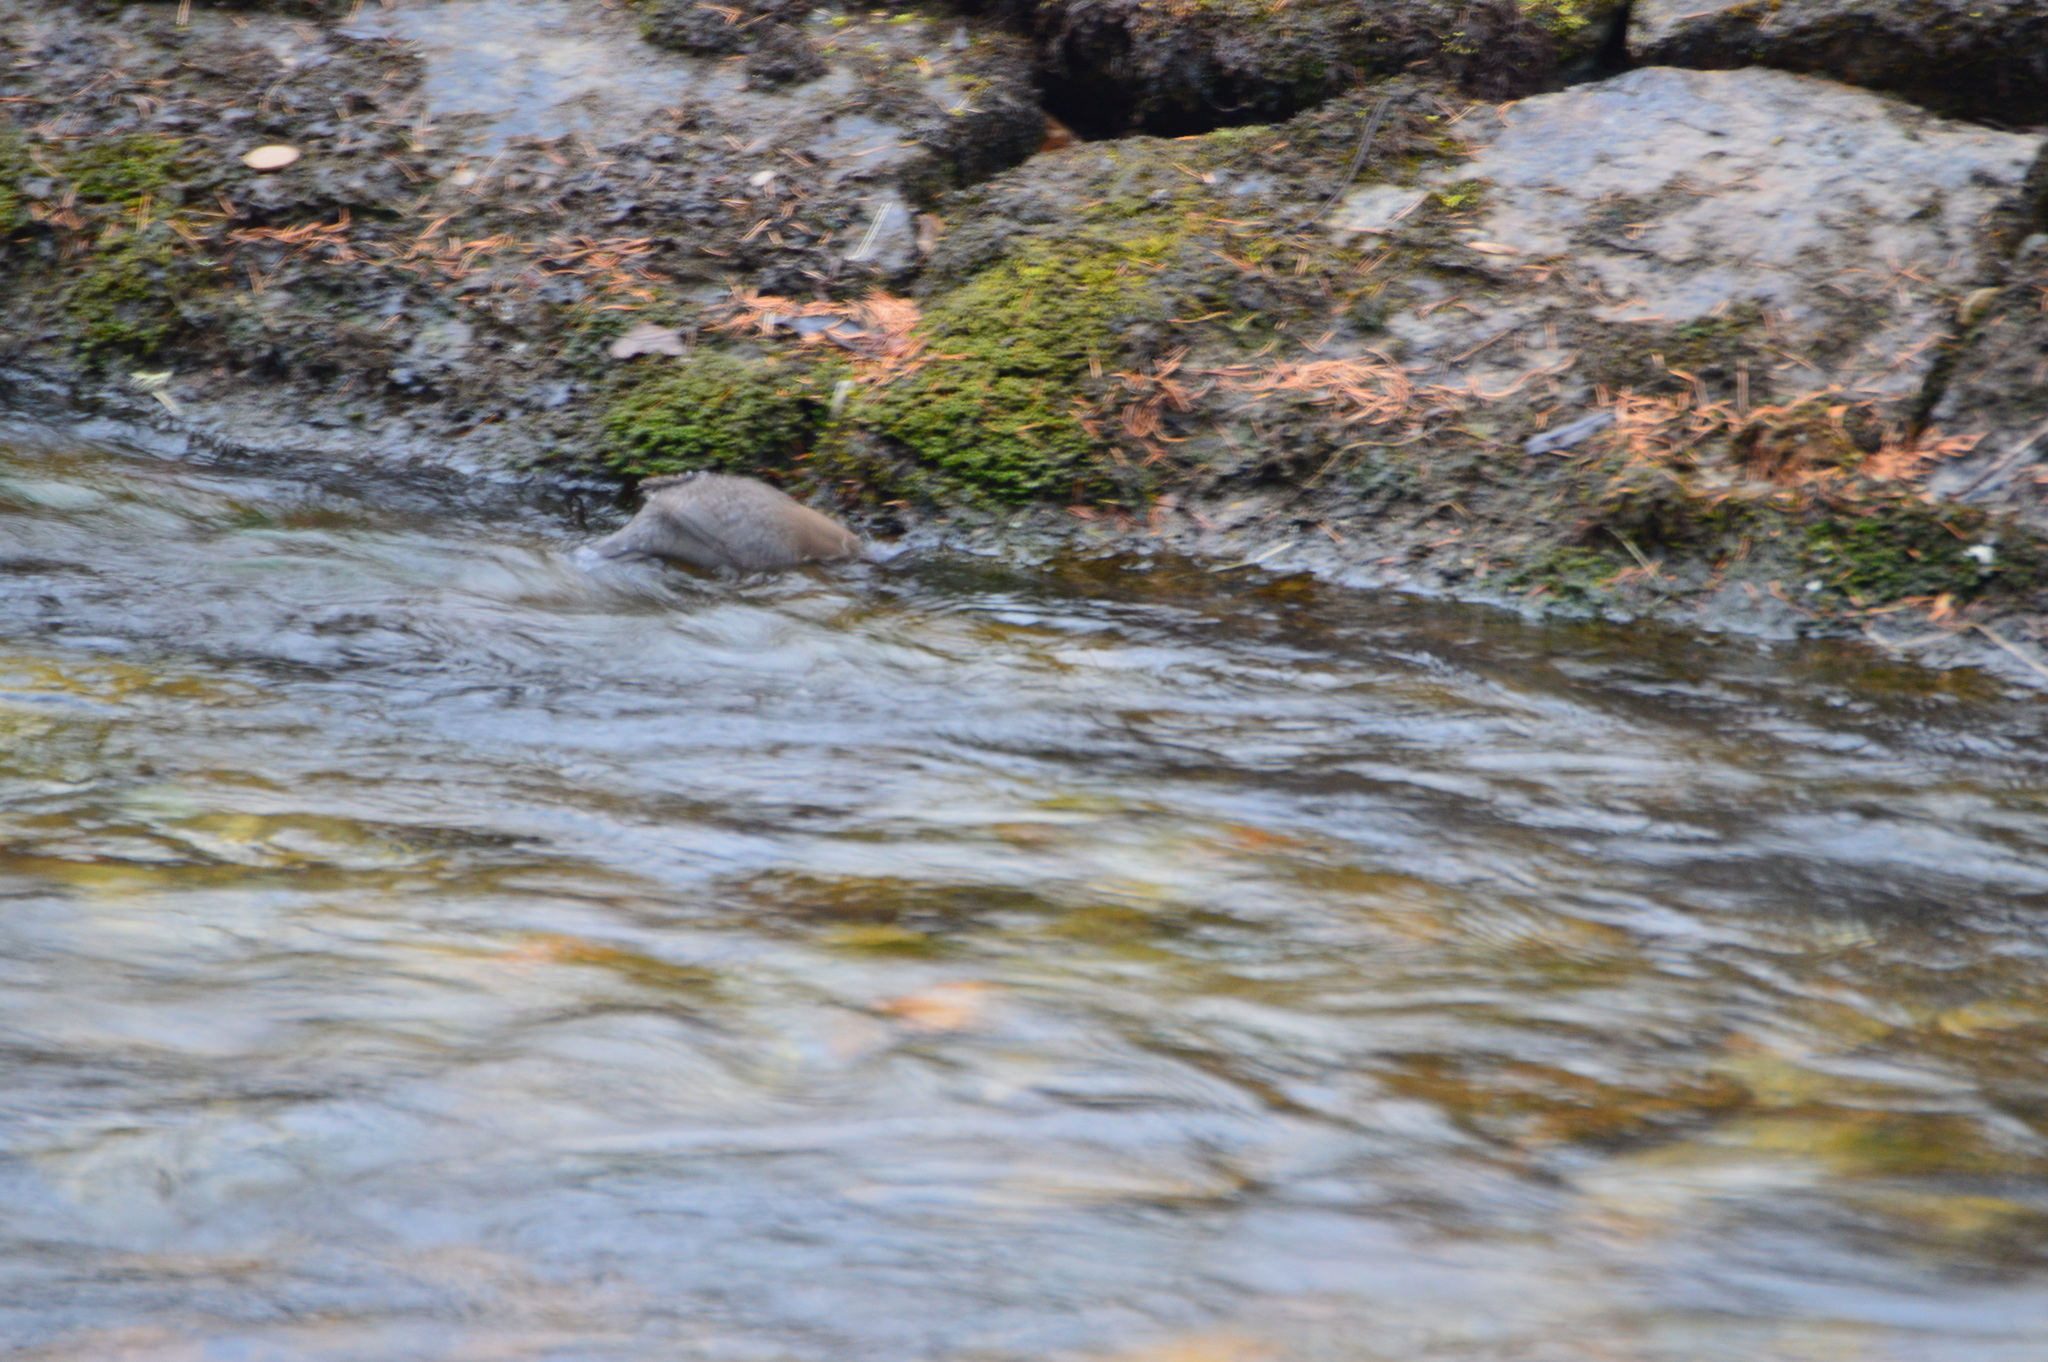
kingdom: Animalia
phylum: Chordata
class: Aves
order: Passeriformes
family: Cinclidae
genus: Cinclus
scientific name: Cinclus cinclus
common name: White-throated dipper
